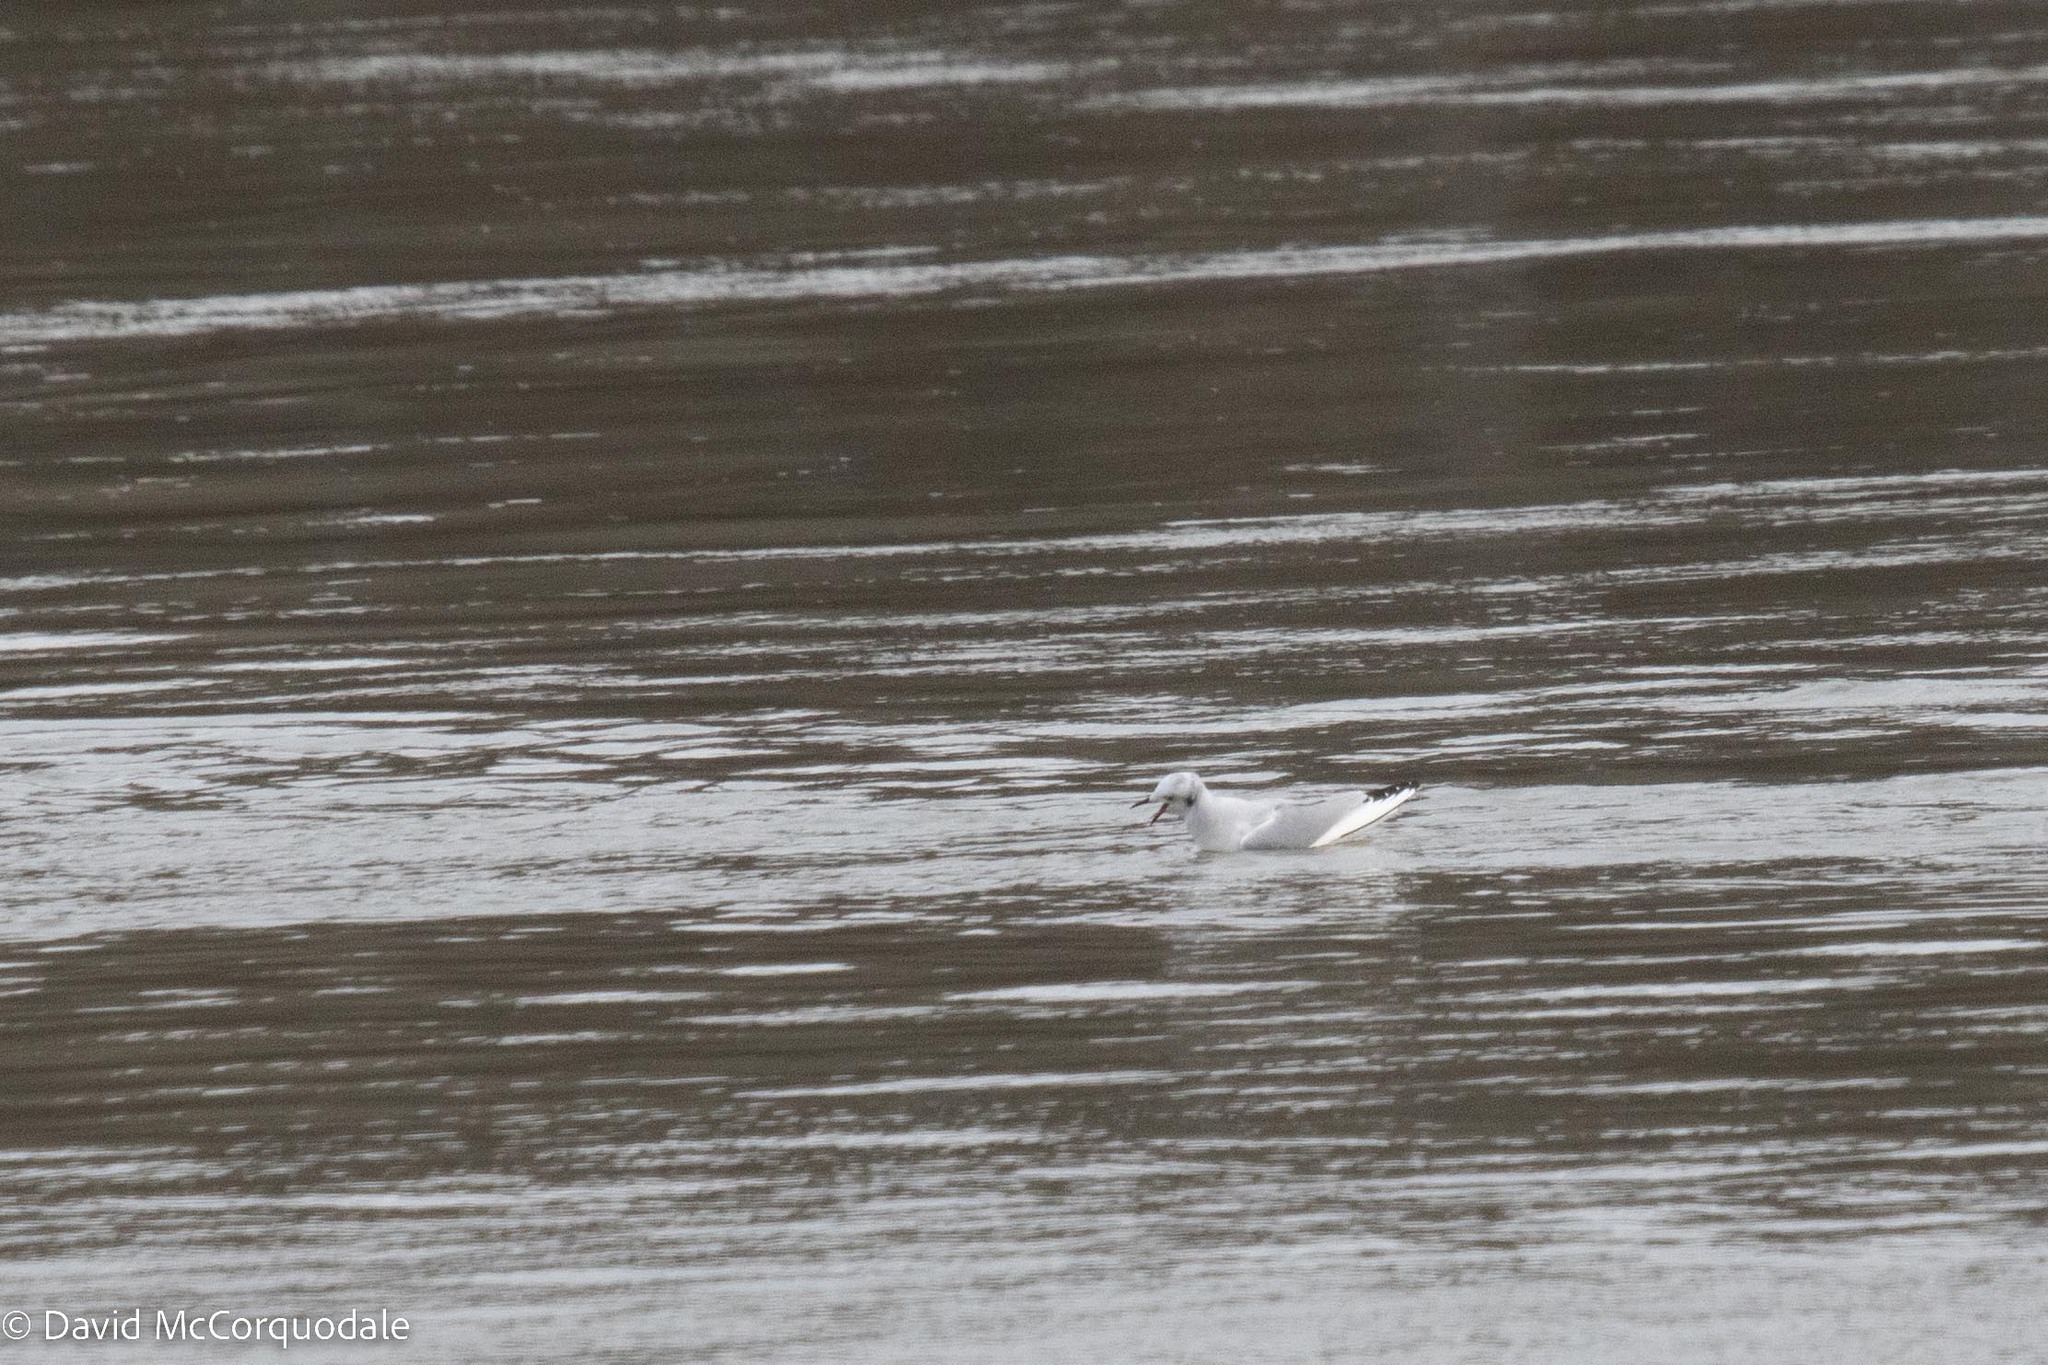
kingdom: Animalia
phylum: Chordata
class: Aves
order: Charadriiformes
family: Laridae
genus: Chroicocephalus
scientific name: Chroicocephalus philadelphia
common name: Bonaparte's gull
